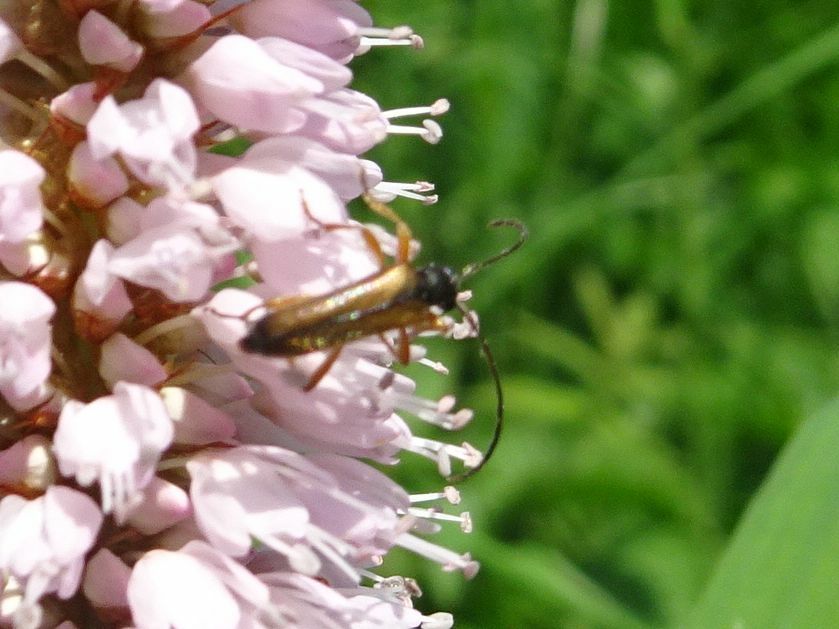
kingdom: Animalia
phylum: Arthropoda
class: Insecta
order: Coleoptera
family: Cerambycidae
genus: Alosterna
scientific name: Alosterna tabacicolor
